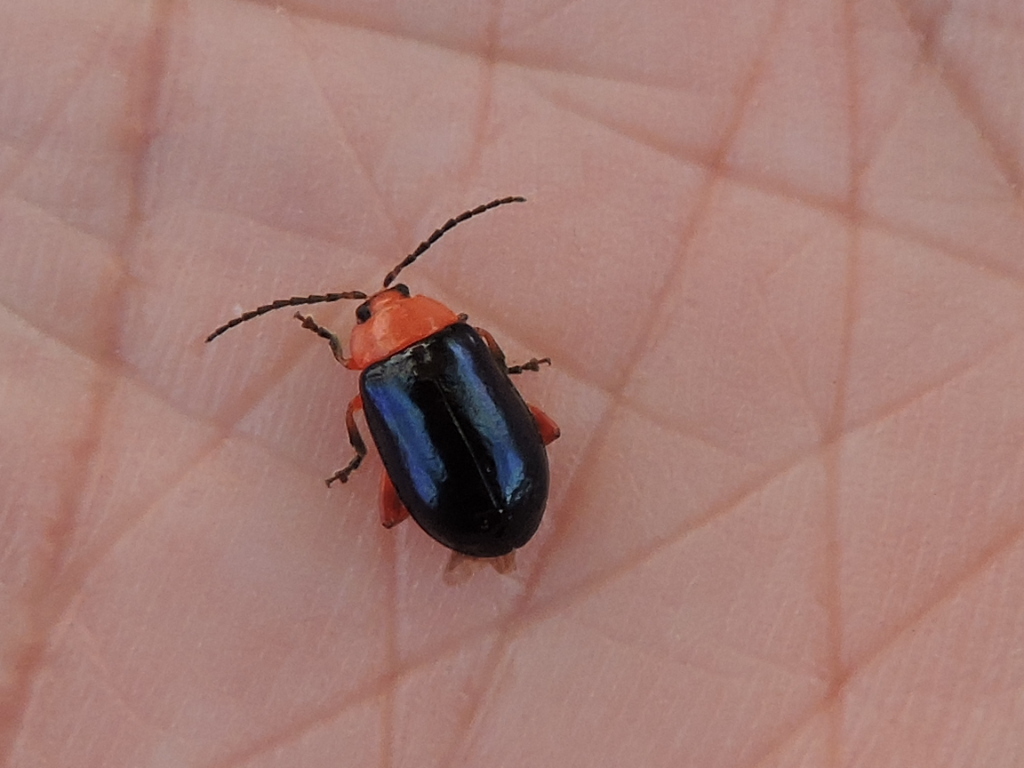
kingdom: Animalia
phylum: Arthropoda
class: Insecta
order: Coleoptera
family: Chrysomelidae
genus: Asphaera
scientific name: Asphaera lustrans
